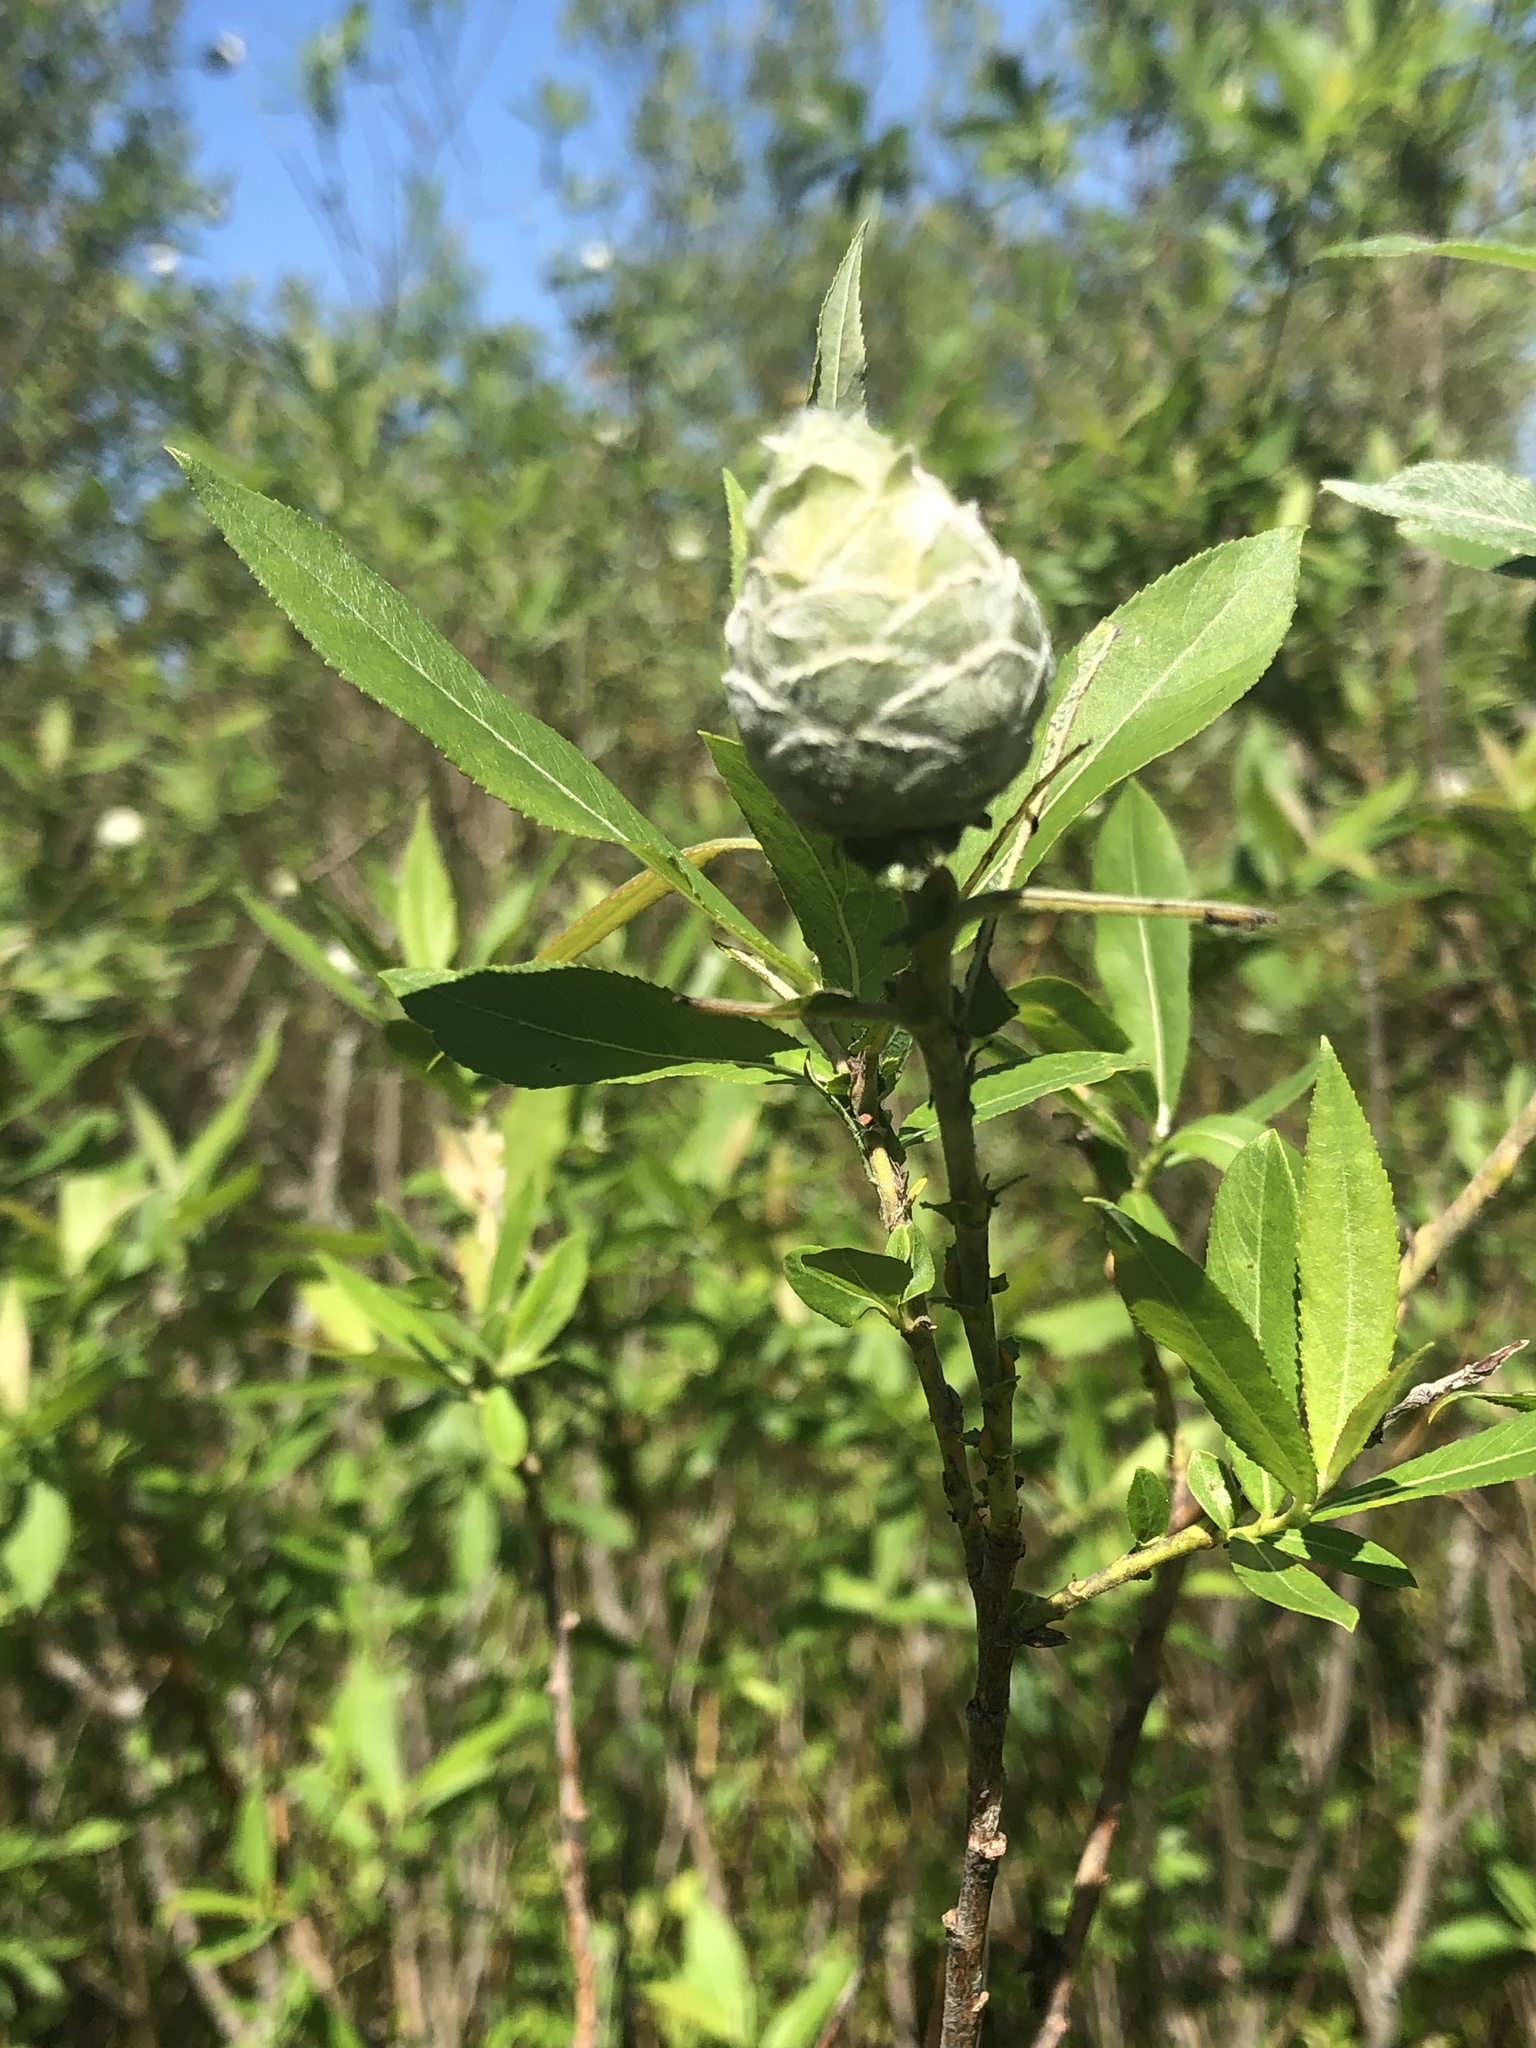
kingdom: Animalia
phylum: Arthropoda
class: Insecta
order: Diptera
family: Cecidomyiidae
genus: Rabdophaga
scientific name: Rabdophaga strobiloides
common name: Willow pinecone gall midge
